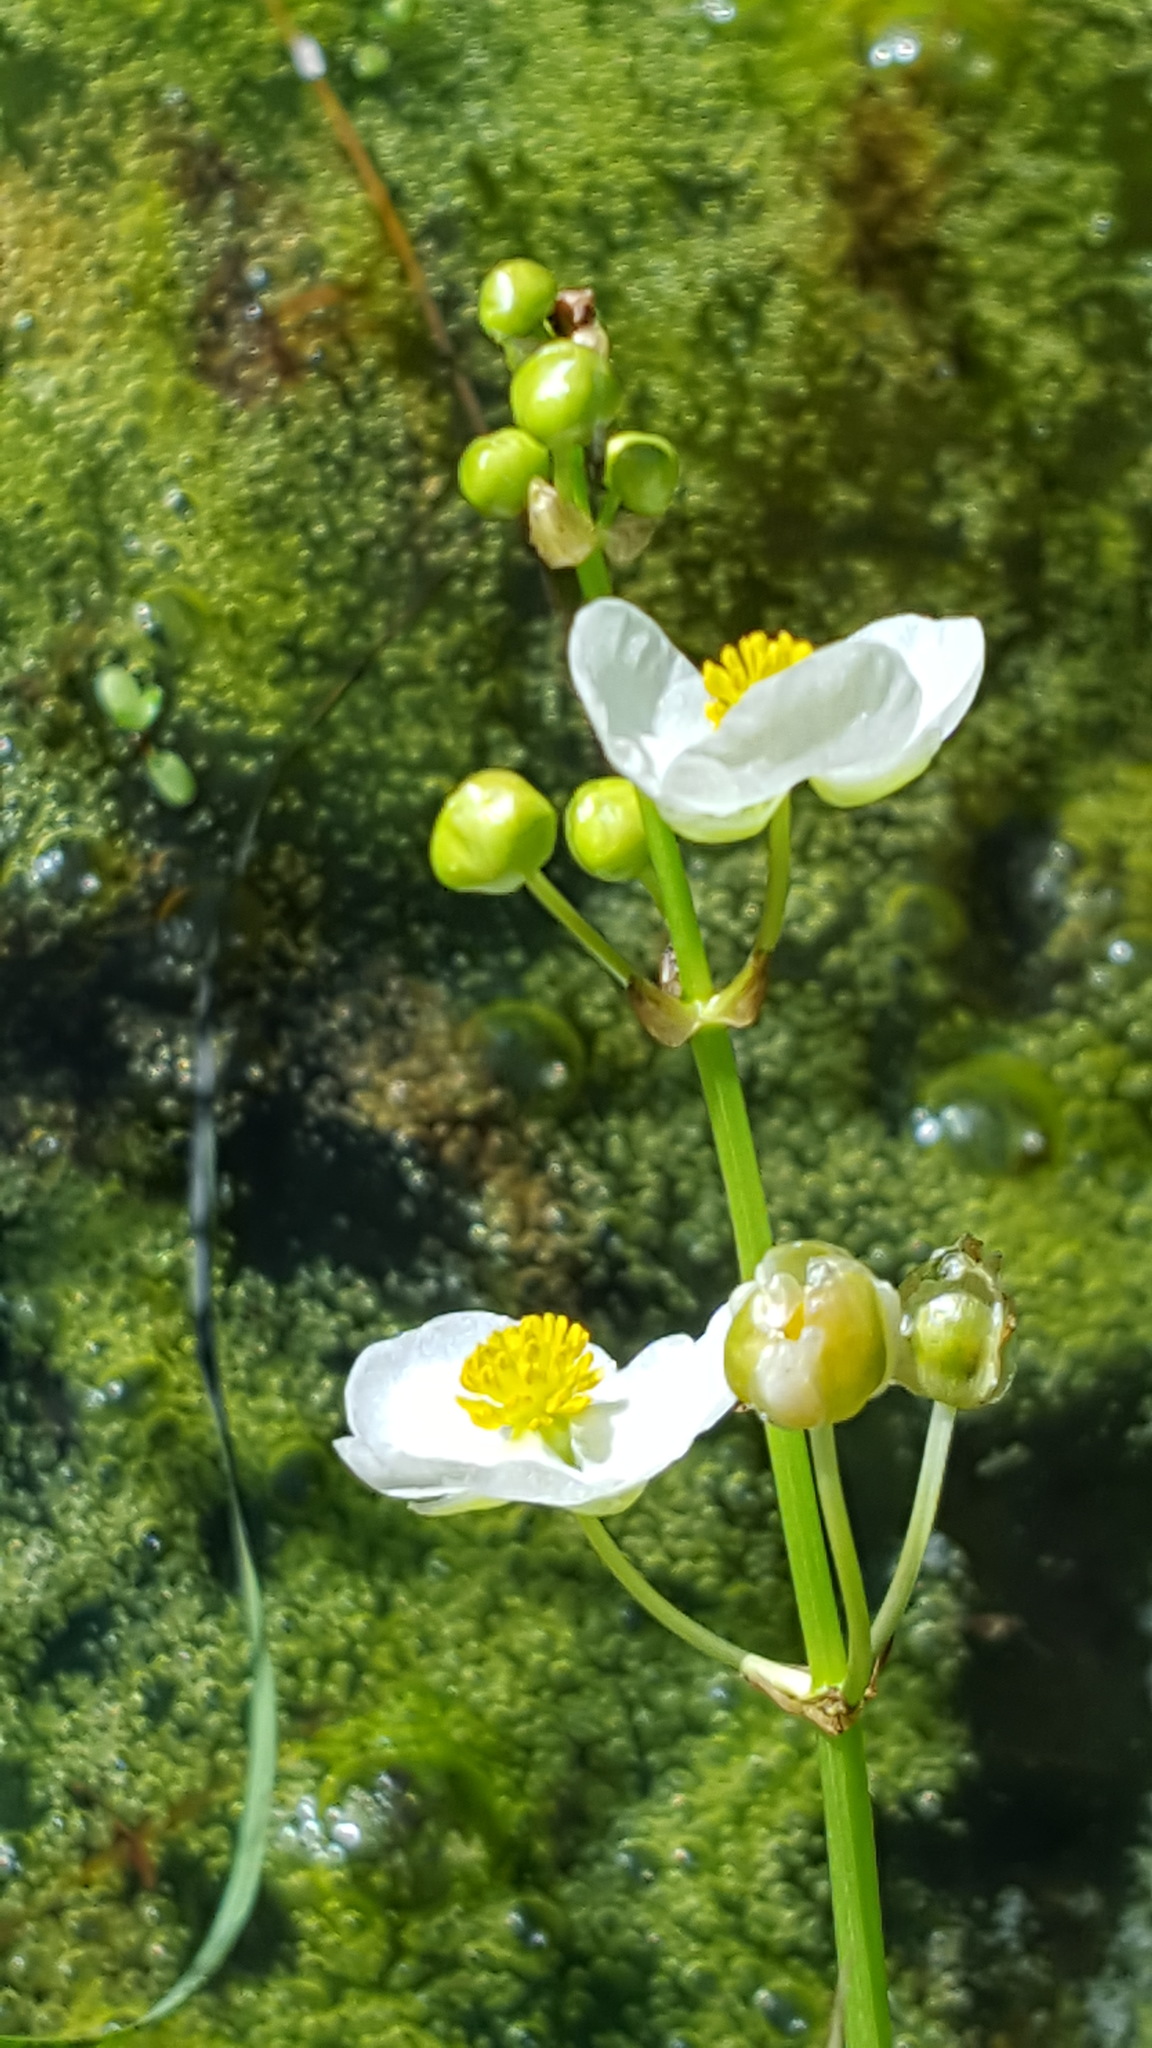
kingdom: Plantae
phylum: Tracheophyta
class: Liliopsida
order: Alismatales
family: Alismataceae
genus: Sagittaria
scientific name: Sagittaria latifolia
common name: Duck-potato
